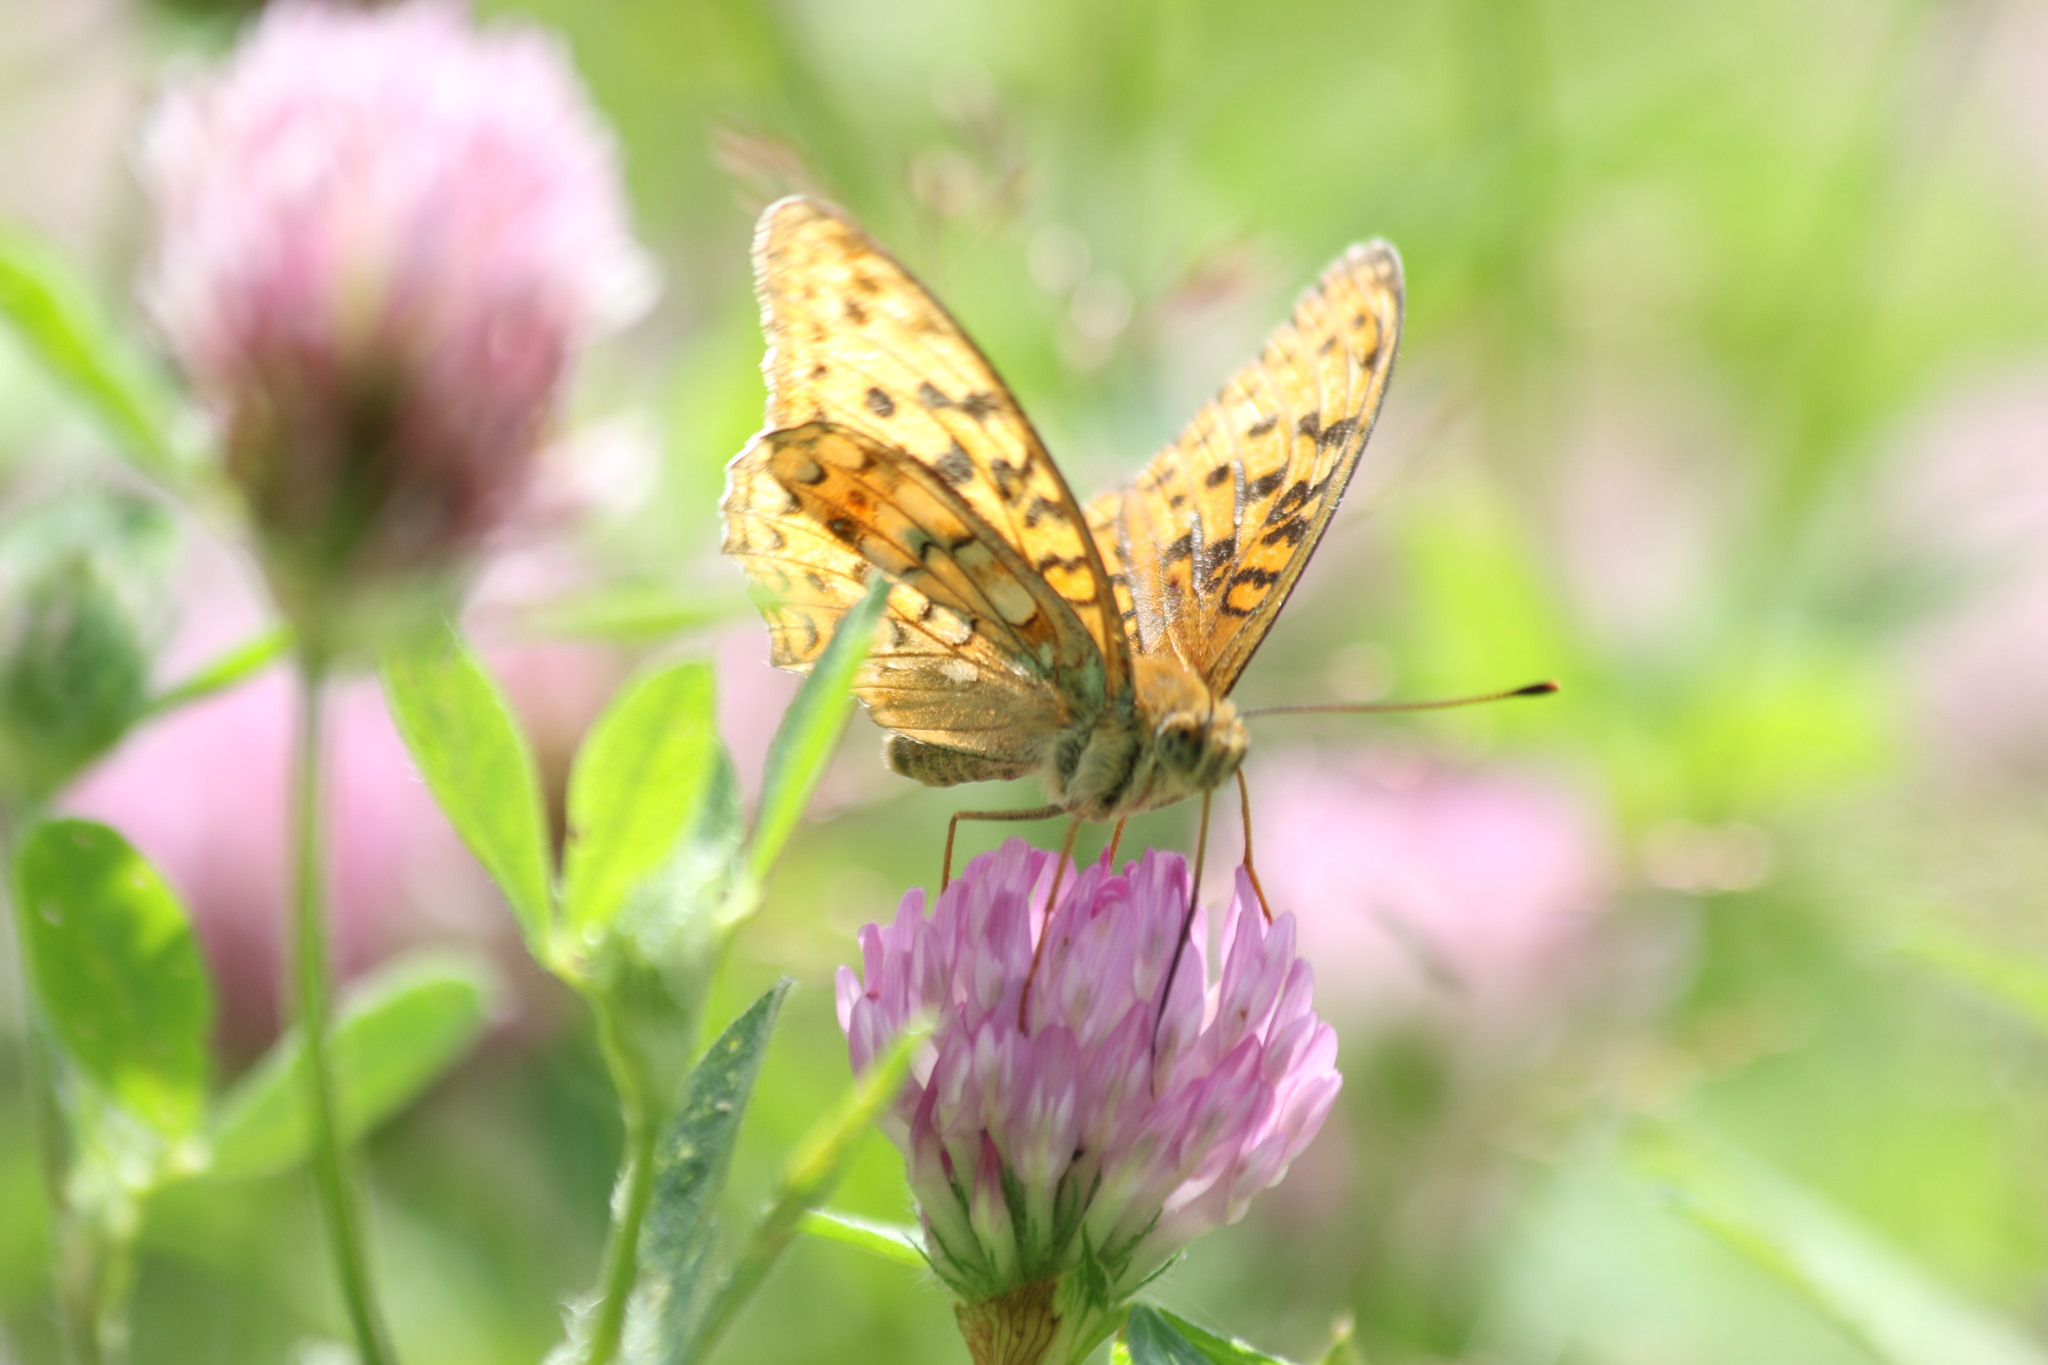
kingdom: Animalia
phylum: Arthropoda
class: Insecta
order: Lepidoptera
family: Nymphalidae
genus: Fabriciana
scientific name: Fabriciana adippe
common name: High brown fritillary
